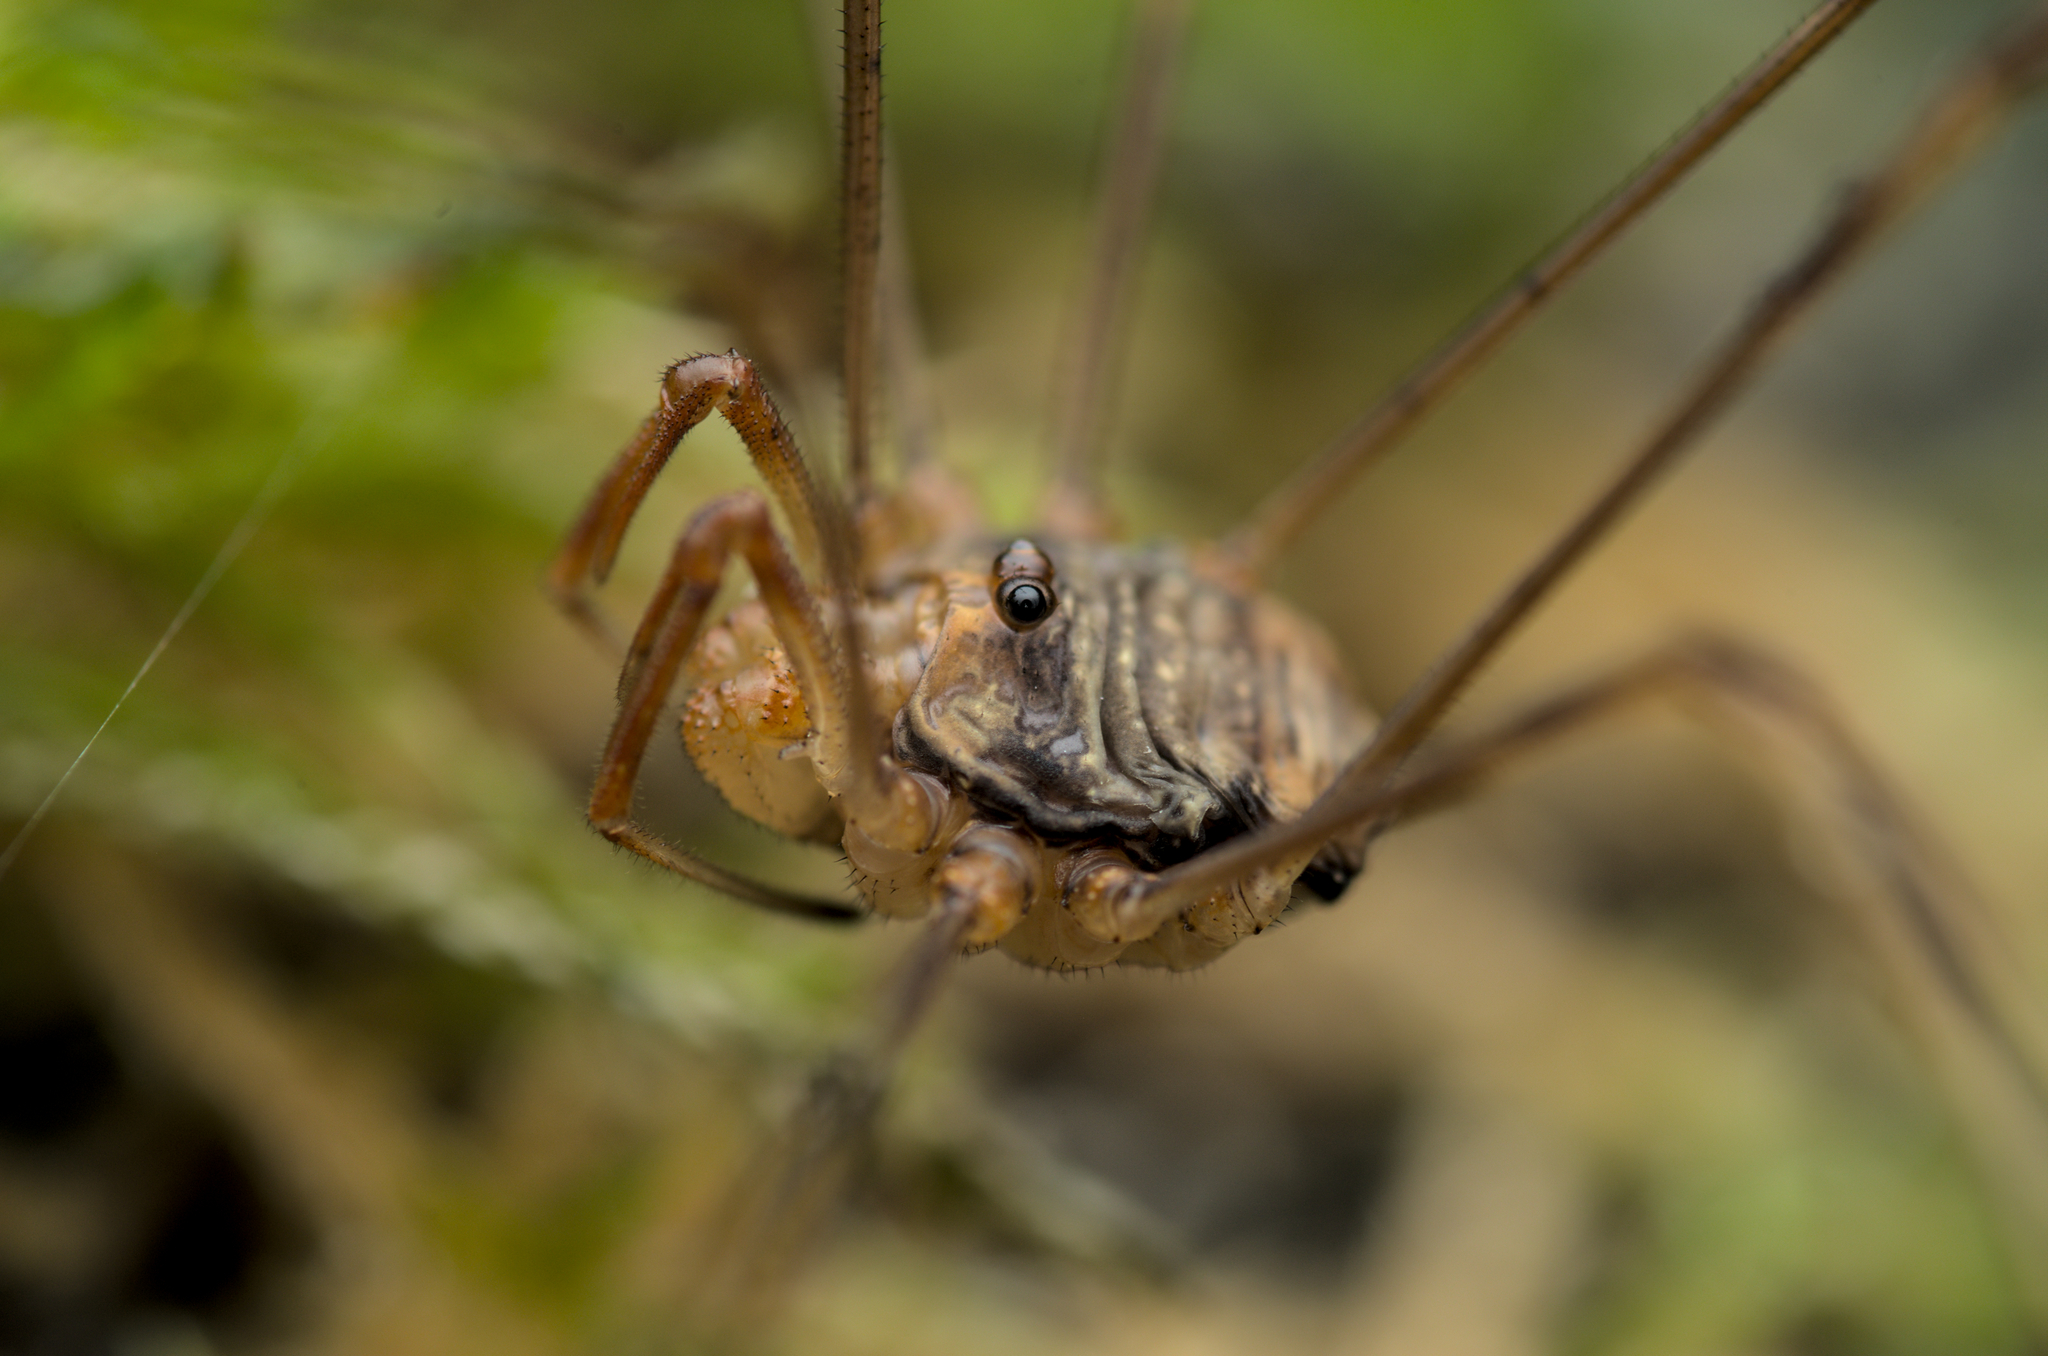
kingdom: Animalia
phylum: Arthropoda
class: Arachnida
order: Opiliones
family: Phalangiidae
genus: Dicranopalpus
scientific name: Dicranopalpus ramosus
